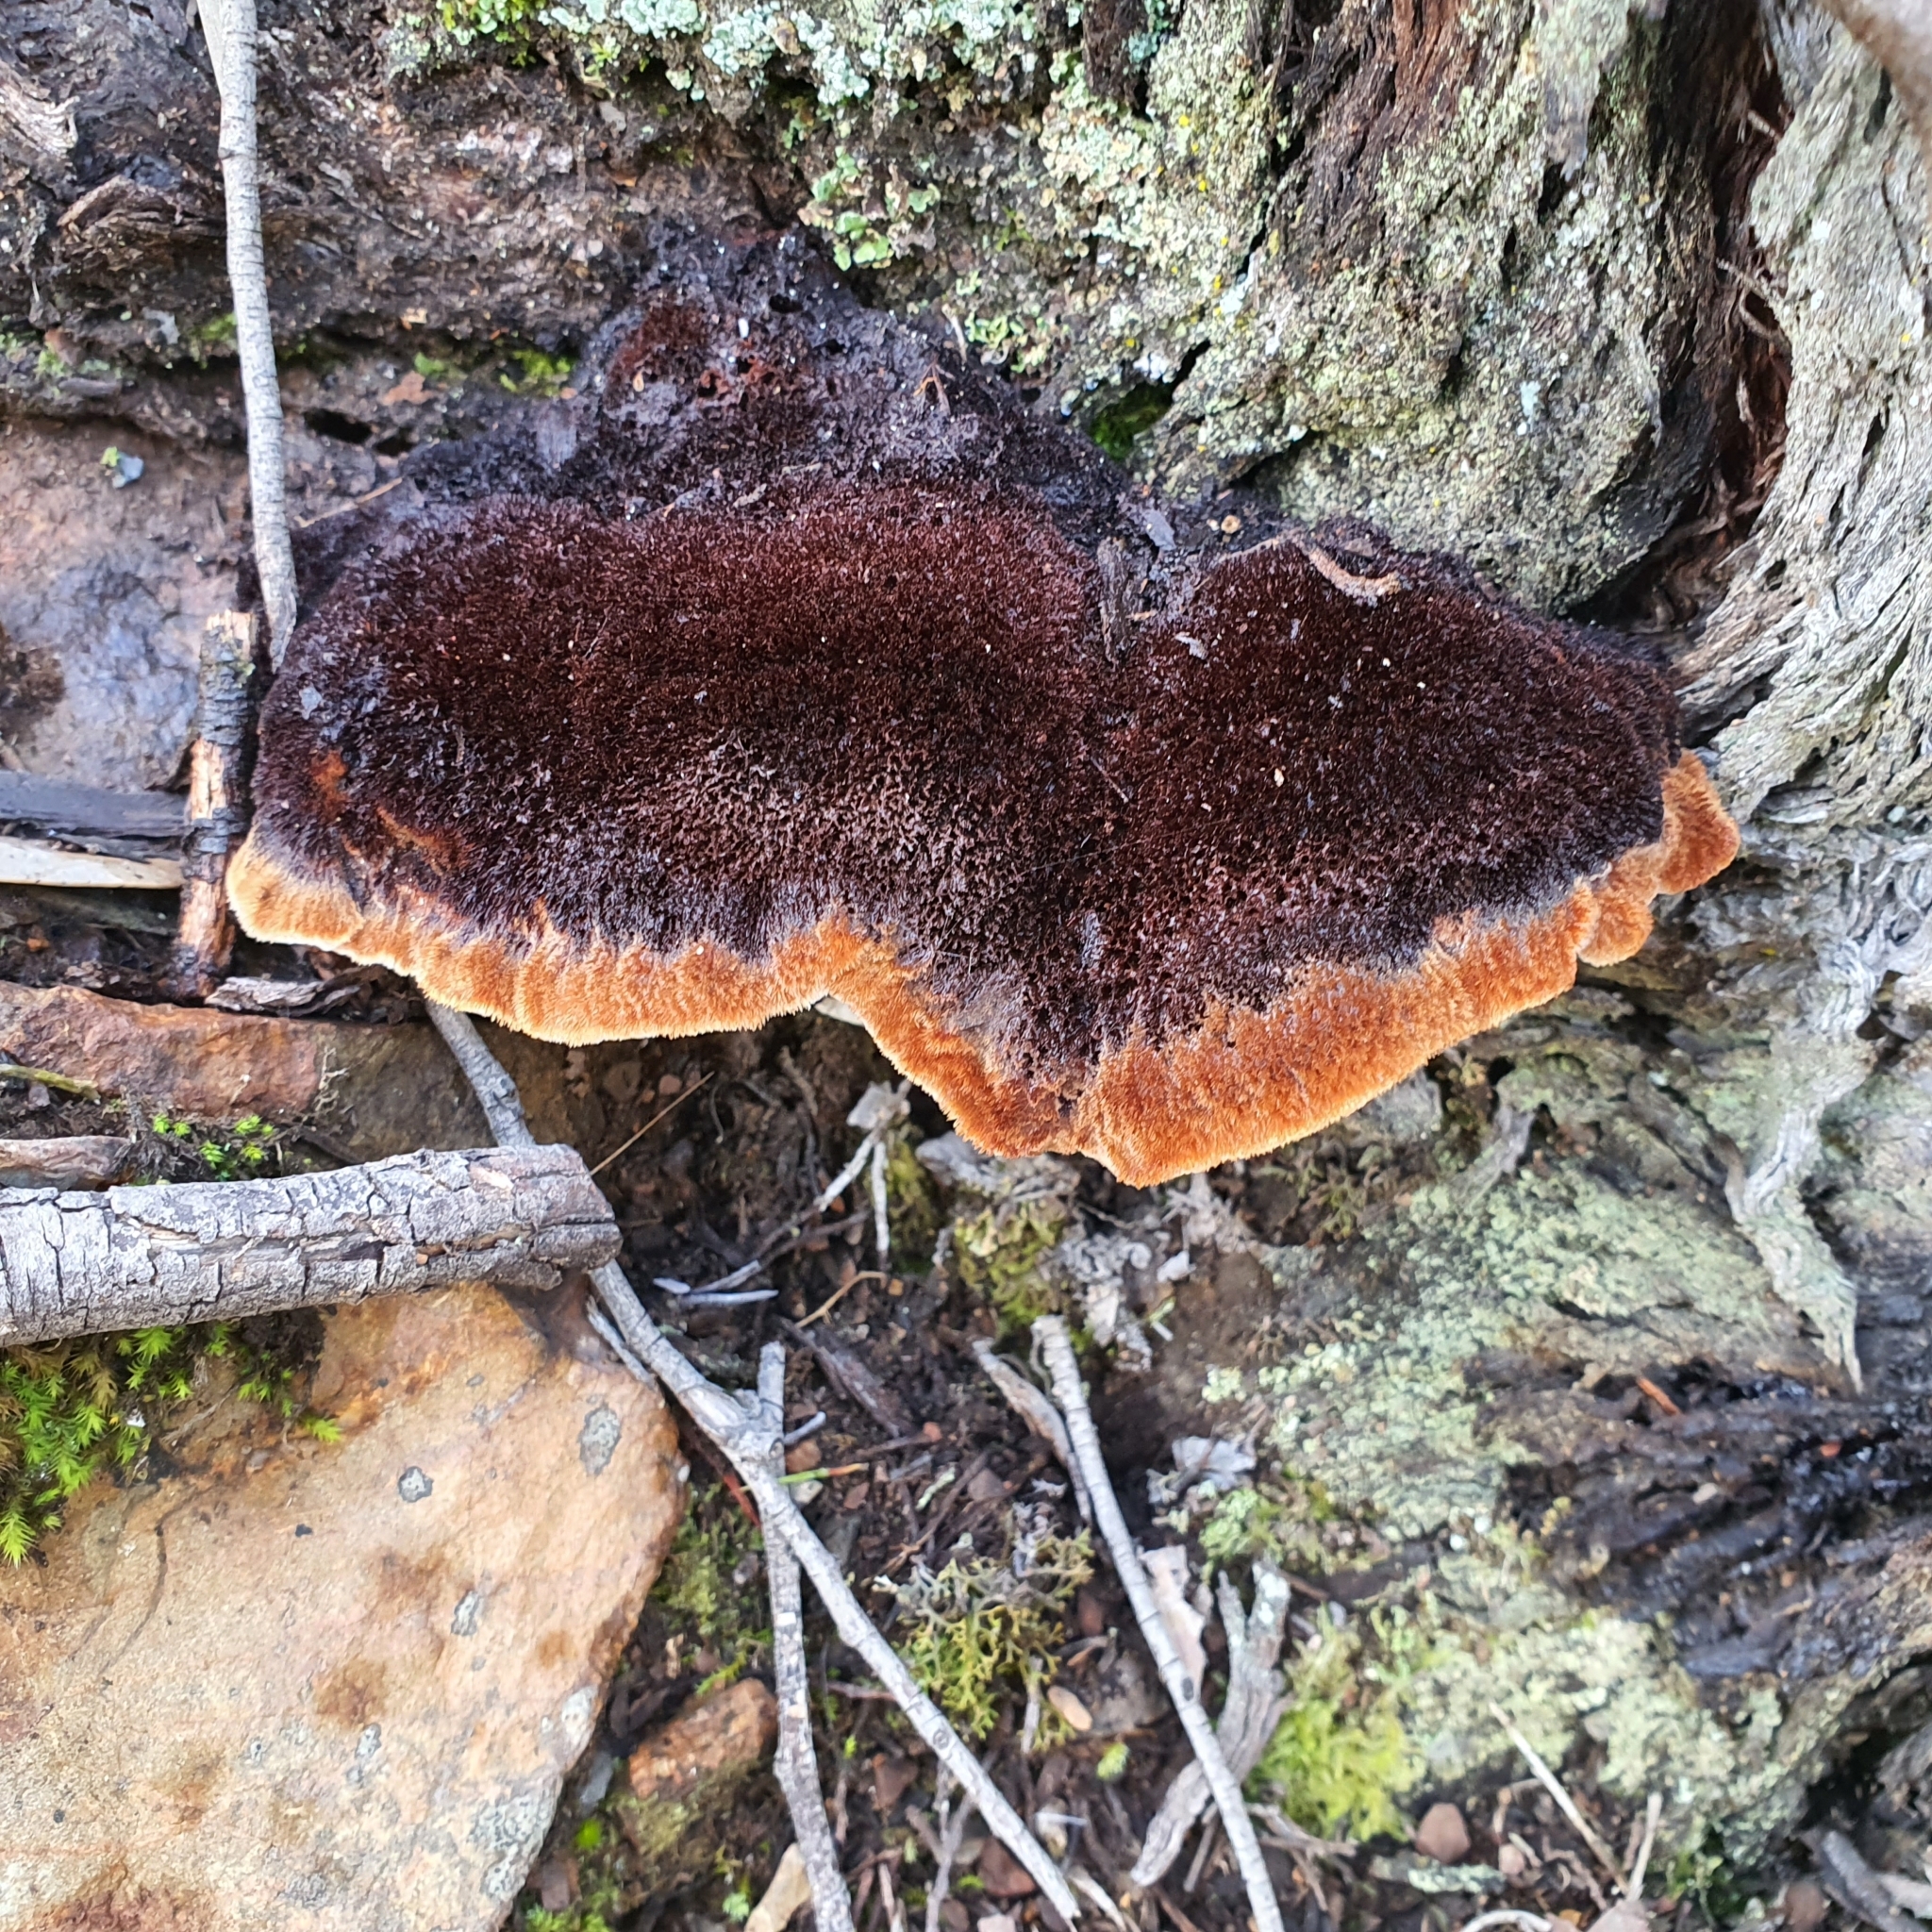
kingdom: Fungi
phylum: Basidiomycota
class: Agaricomycetes
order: Polyporales
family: Dacryobolaceae
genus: Oligoporus
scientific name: Oligoporus pelliculosus
